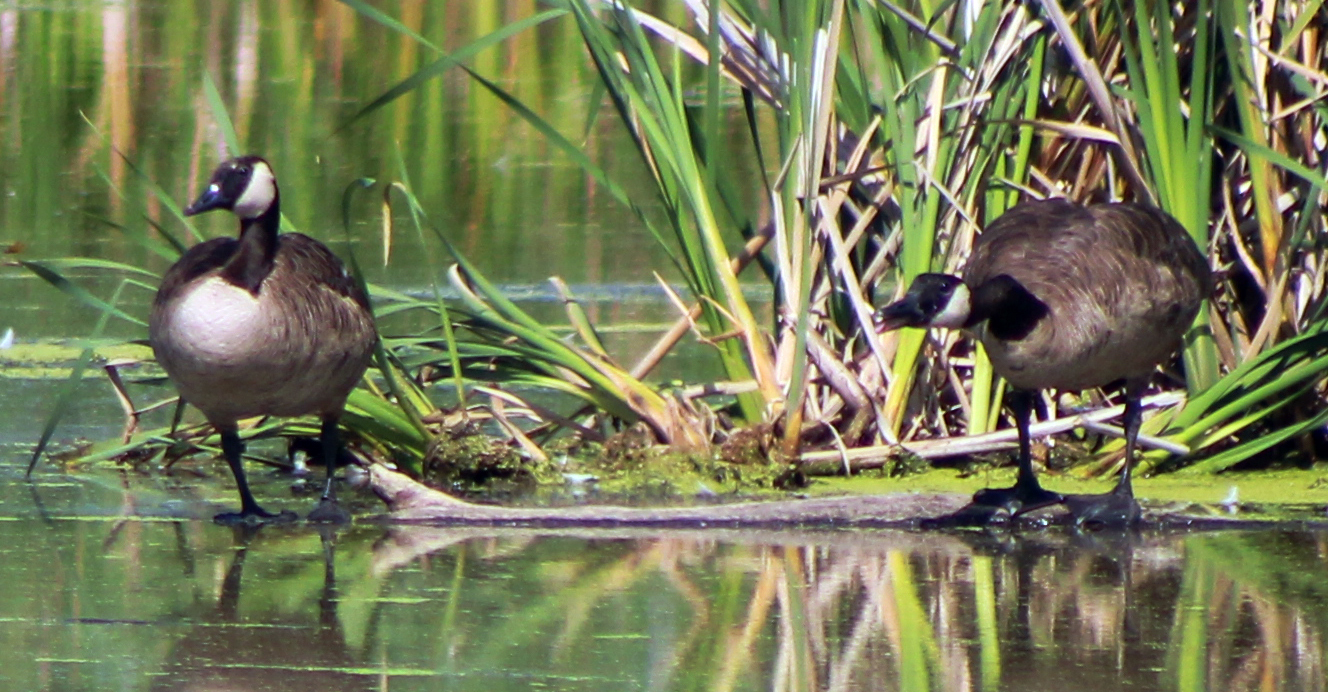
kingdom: Animalia
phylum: Chordata
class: Aves
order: Anseriformes
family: Anatidae
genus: Branta
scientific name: Branta canadensis
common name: Canada goose
